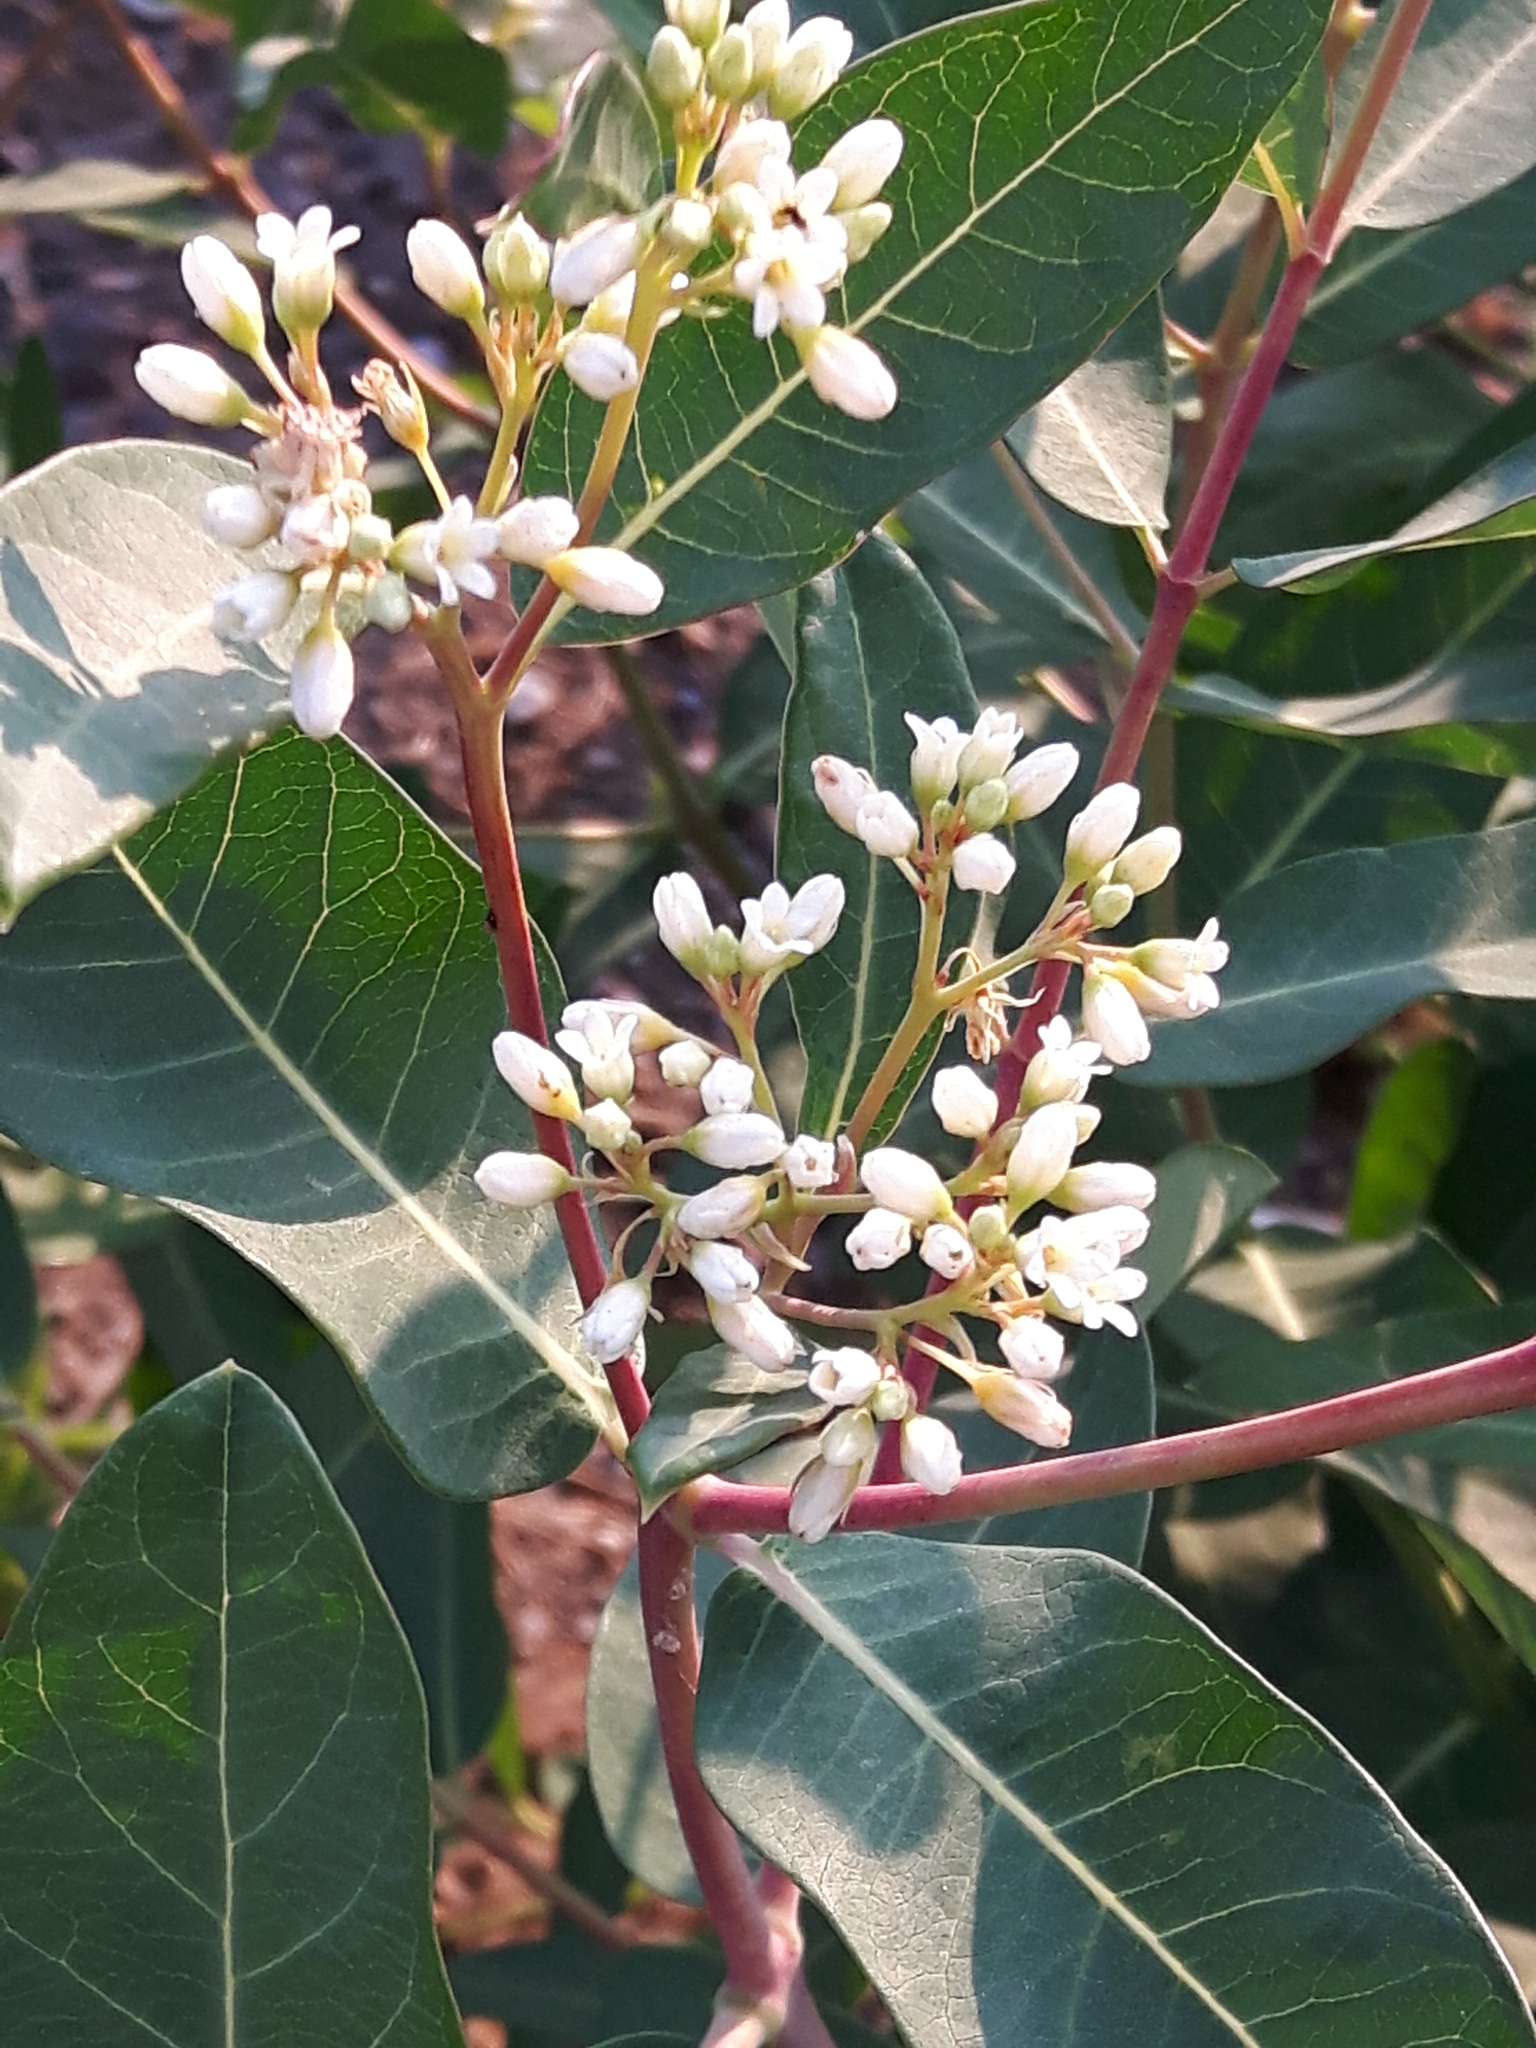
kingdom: Plantae
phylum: Tracheophyta
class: Magnoliopsida
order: Gentianales
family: Apocynaceae
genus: Apocynum
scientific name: Apocynum cannabinum
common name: Hemp dogbane
